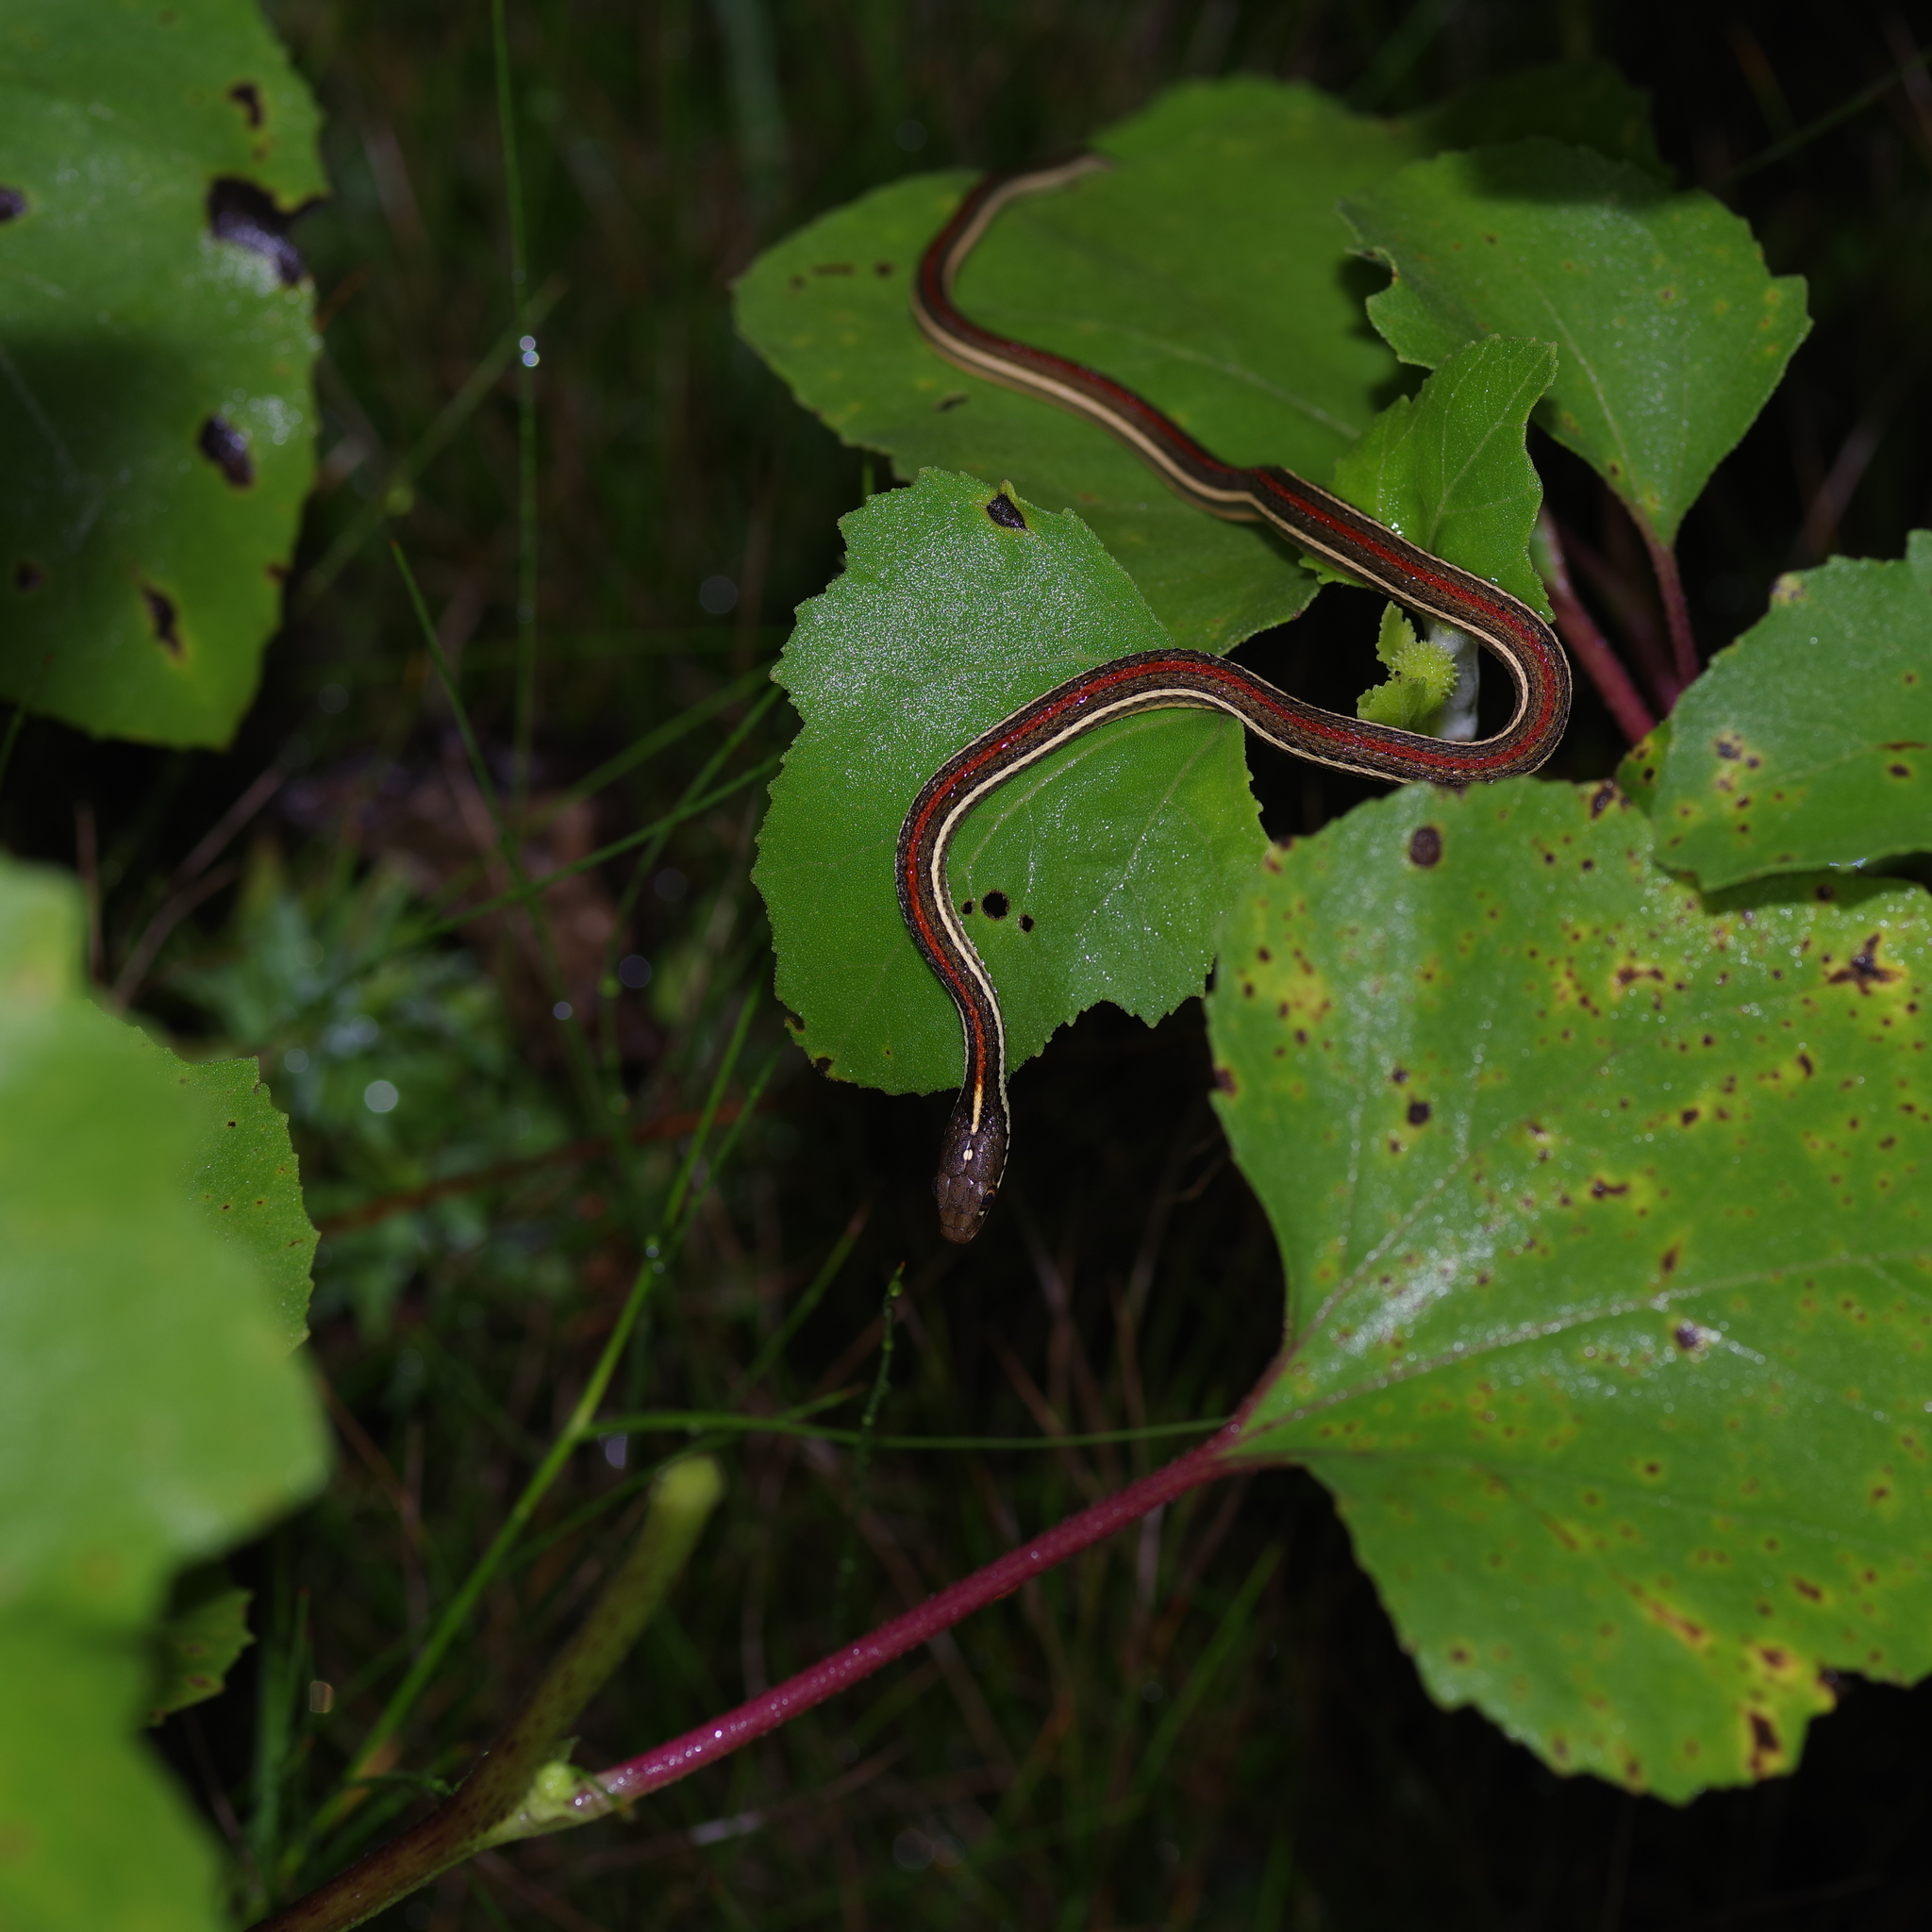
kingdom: Animalia
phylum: Chordata
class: Squamata
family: Colubridae
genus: Thamnophis
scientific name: Thamnophis proximus
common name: Western ribbon snake
